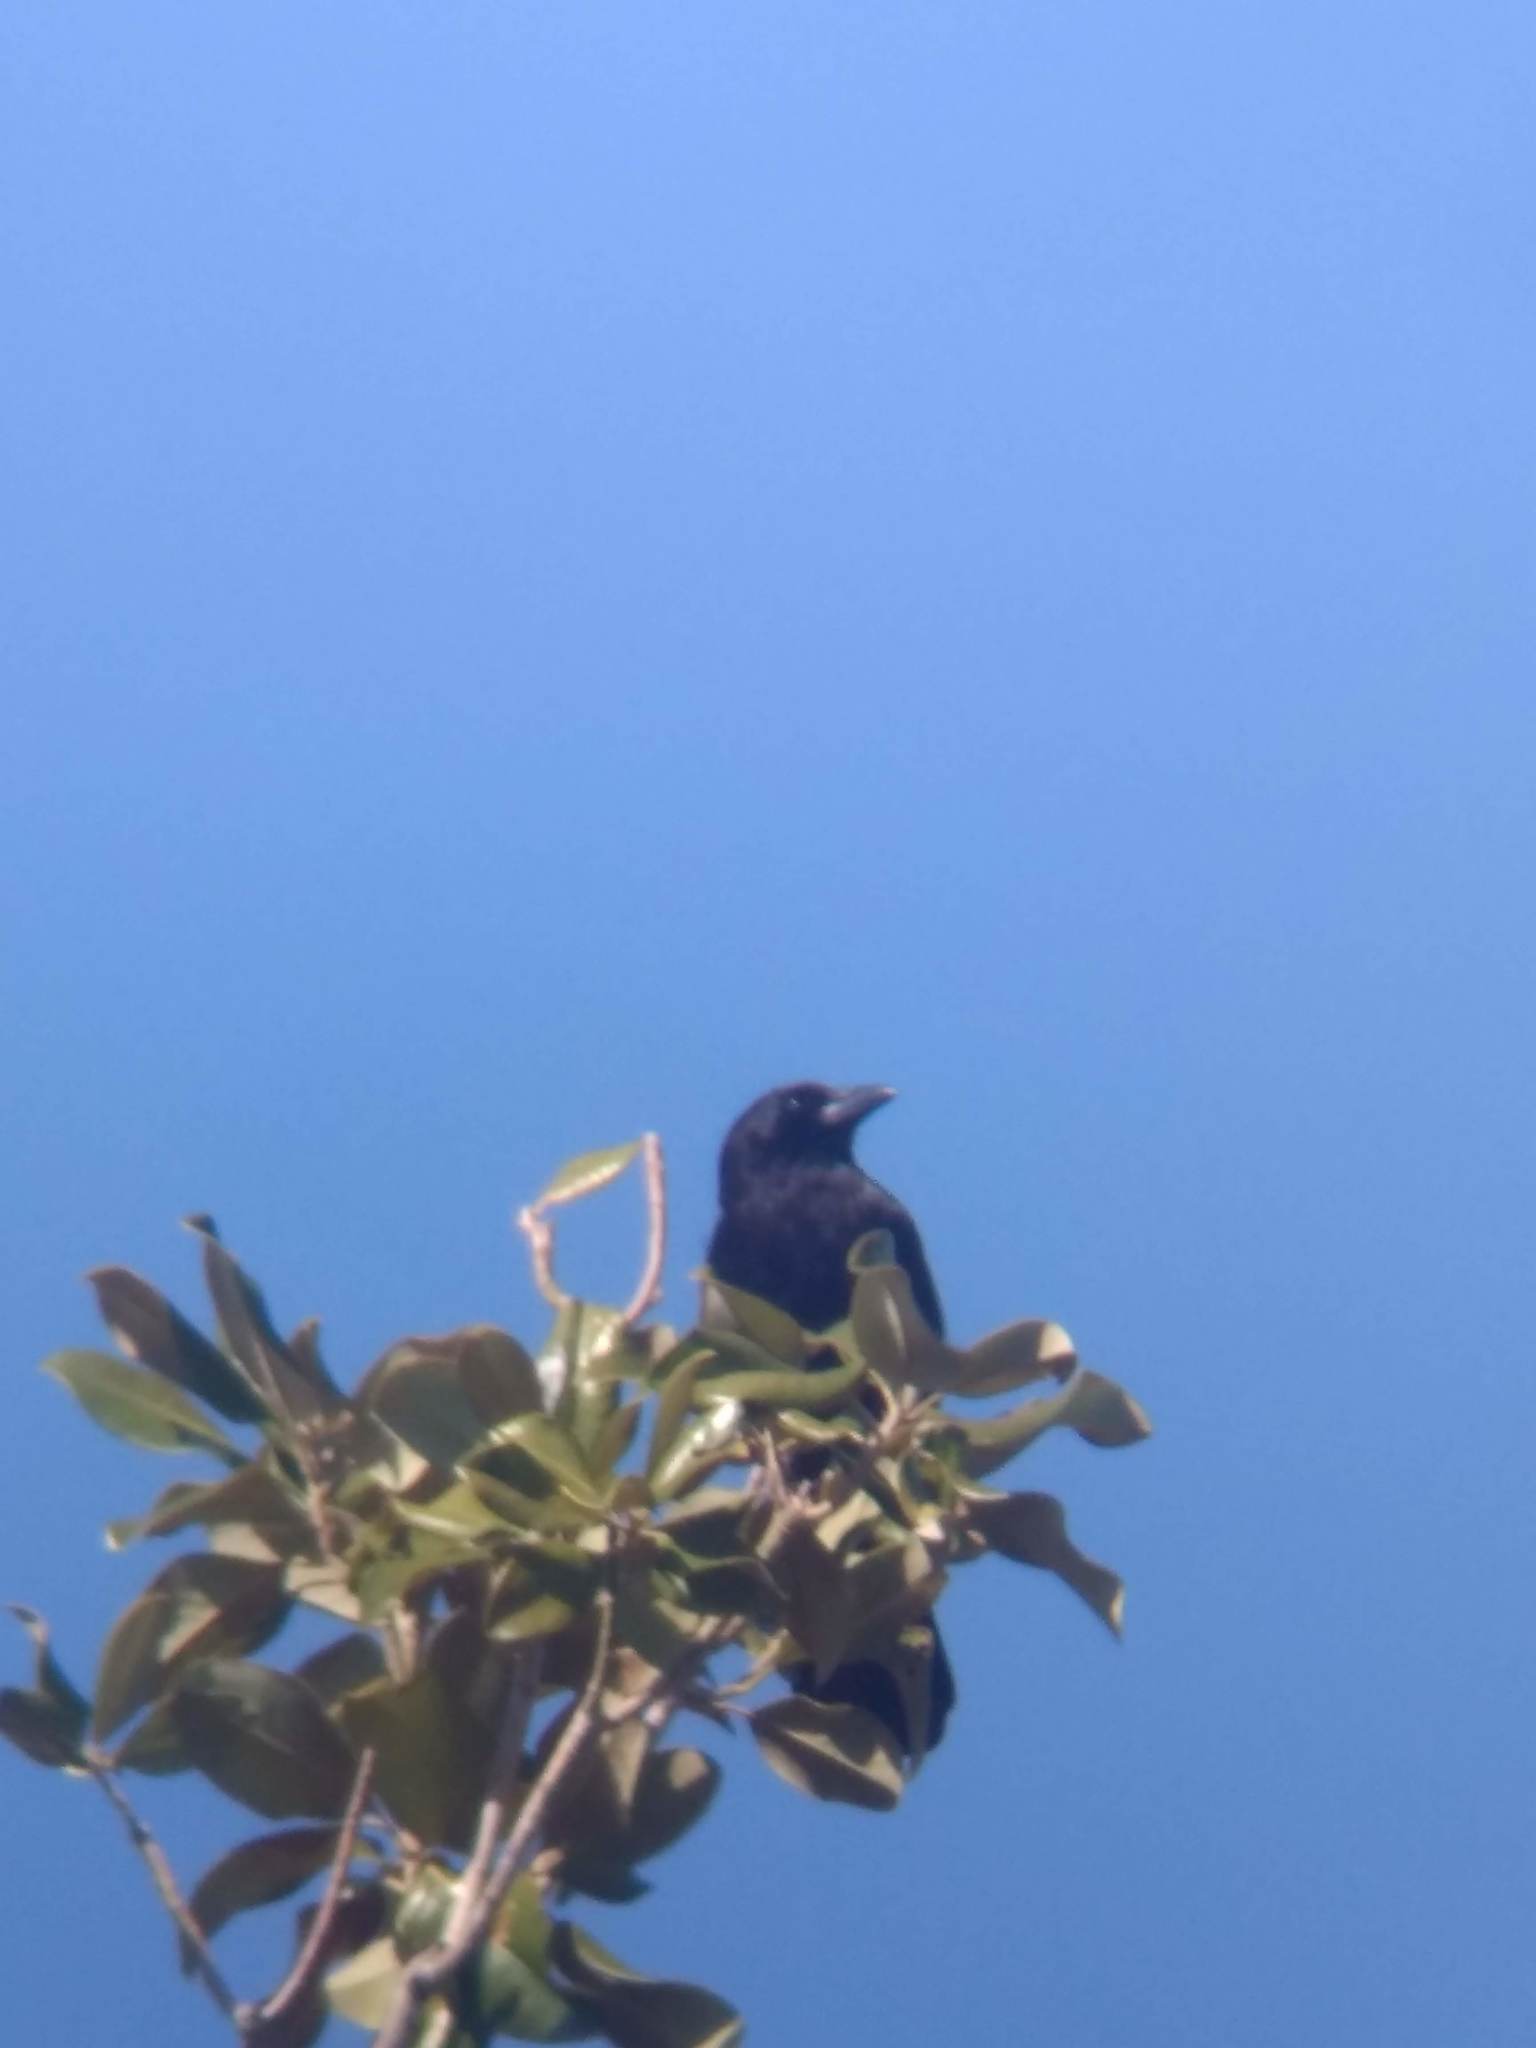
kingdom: Animalia
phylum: Chordata
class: Aves
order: Passeriformes
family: Corvidae
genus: Corvus
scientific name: Corvus brachyrhynchos
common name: American crow
